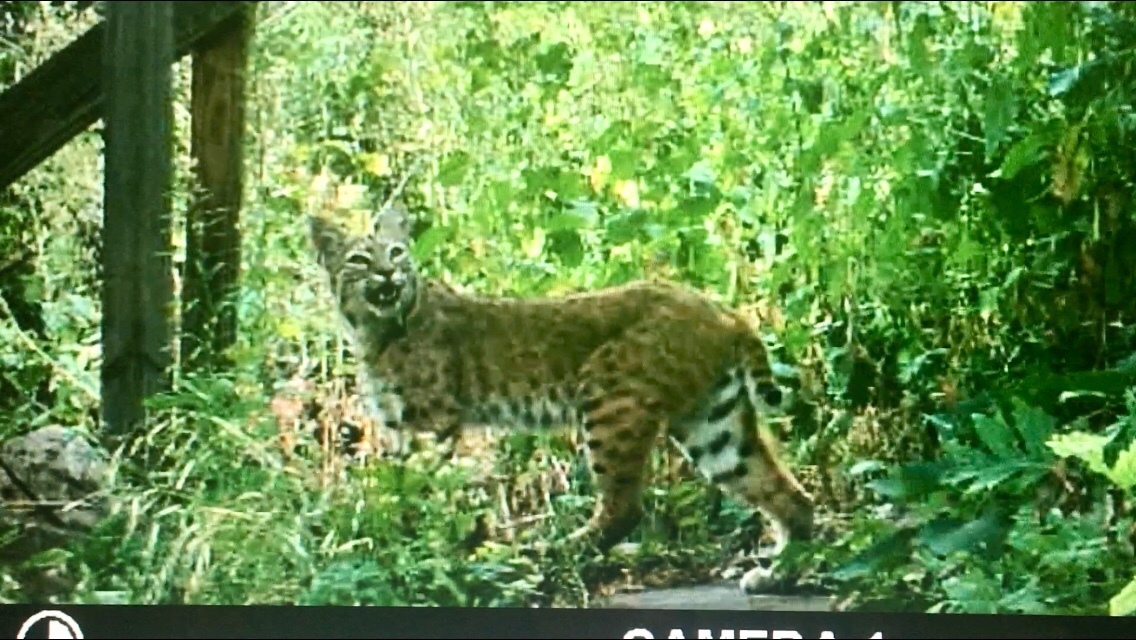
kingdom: Animalia
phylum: Chordata
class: Mammalia
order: Carnivora
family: Felidae
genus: Lynx
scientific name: Lynx rufus
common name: Bobcat
